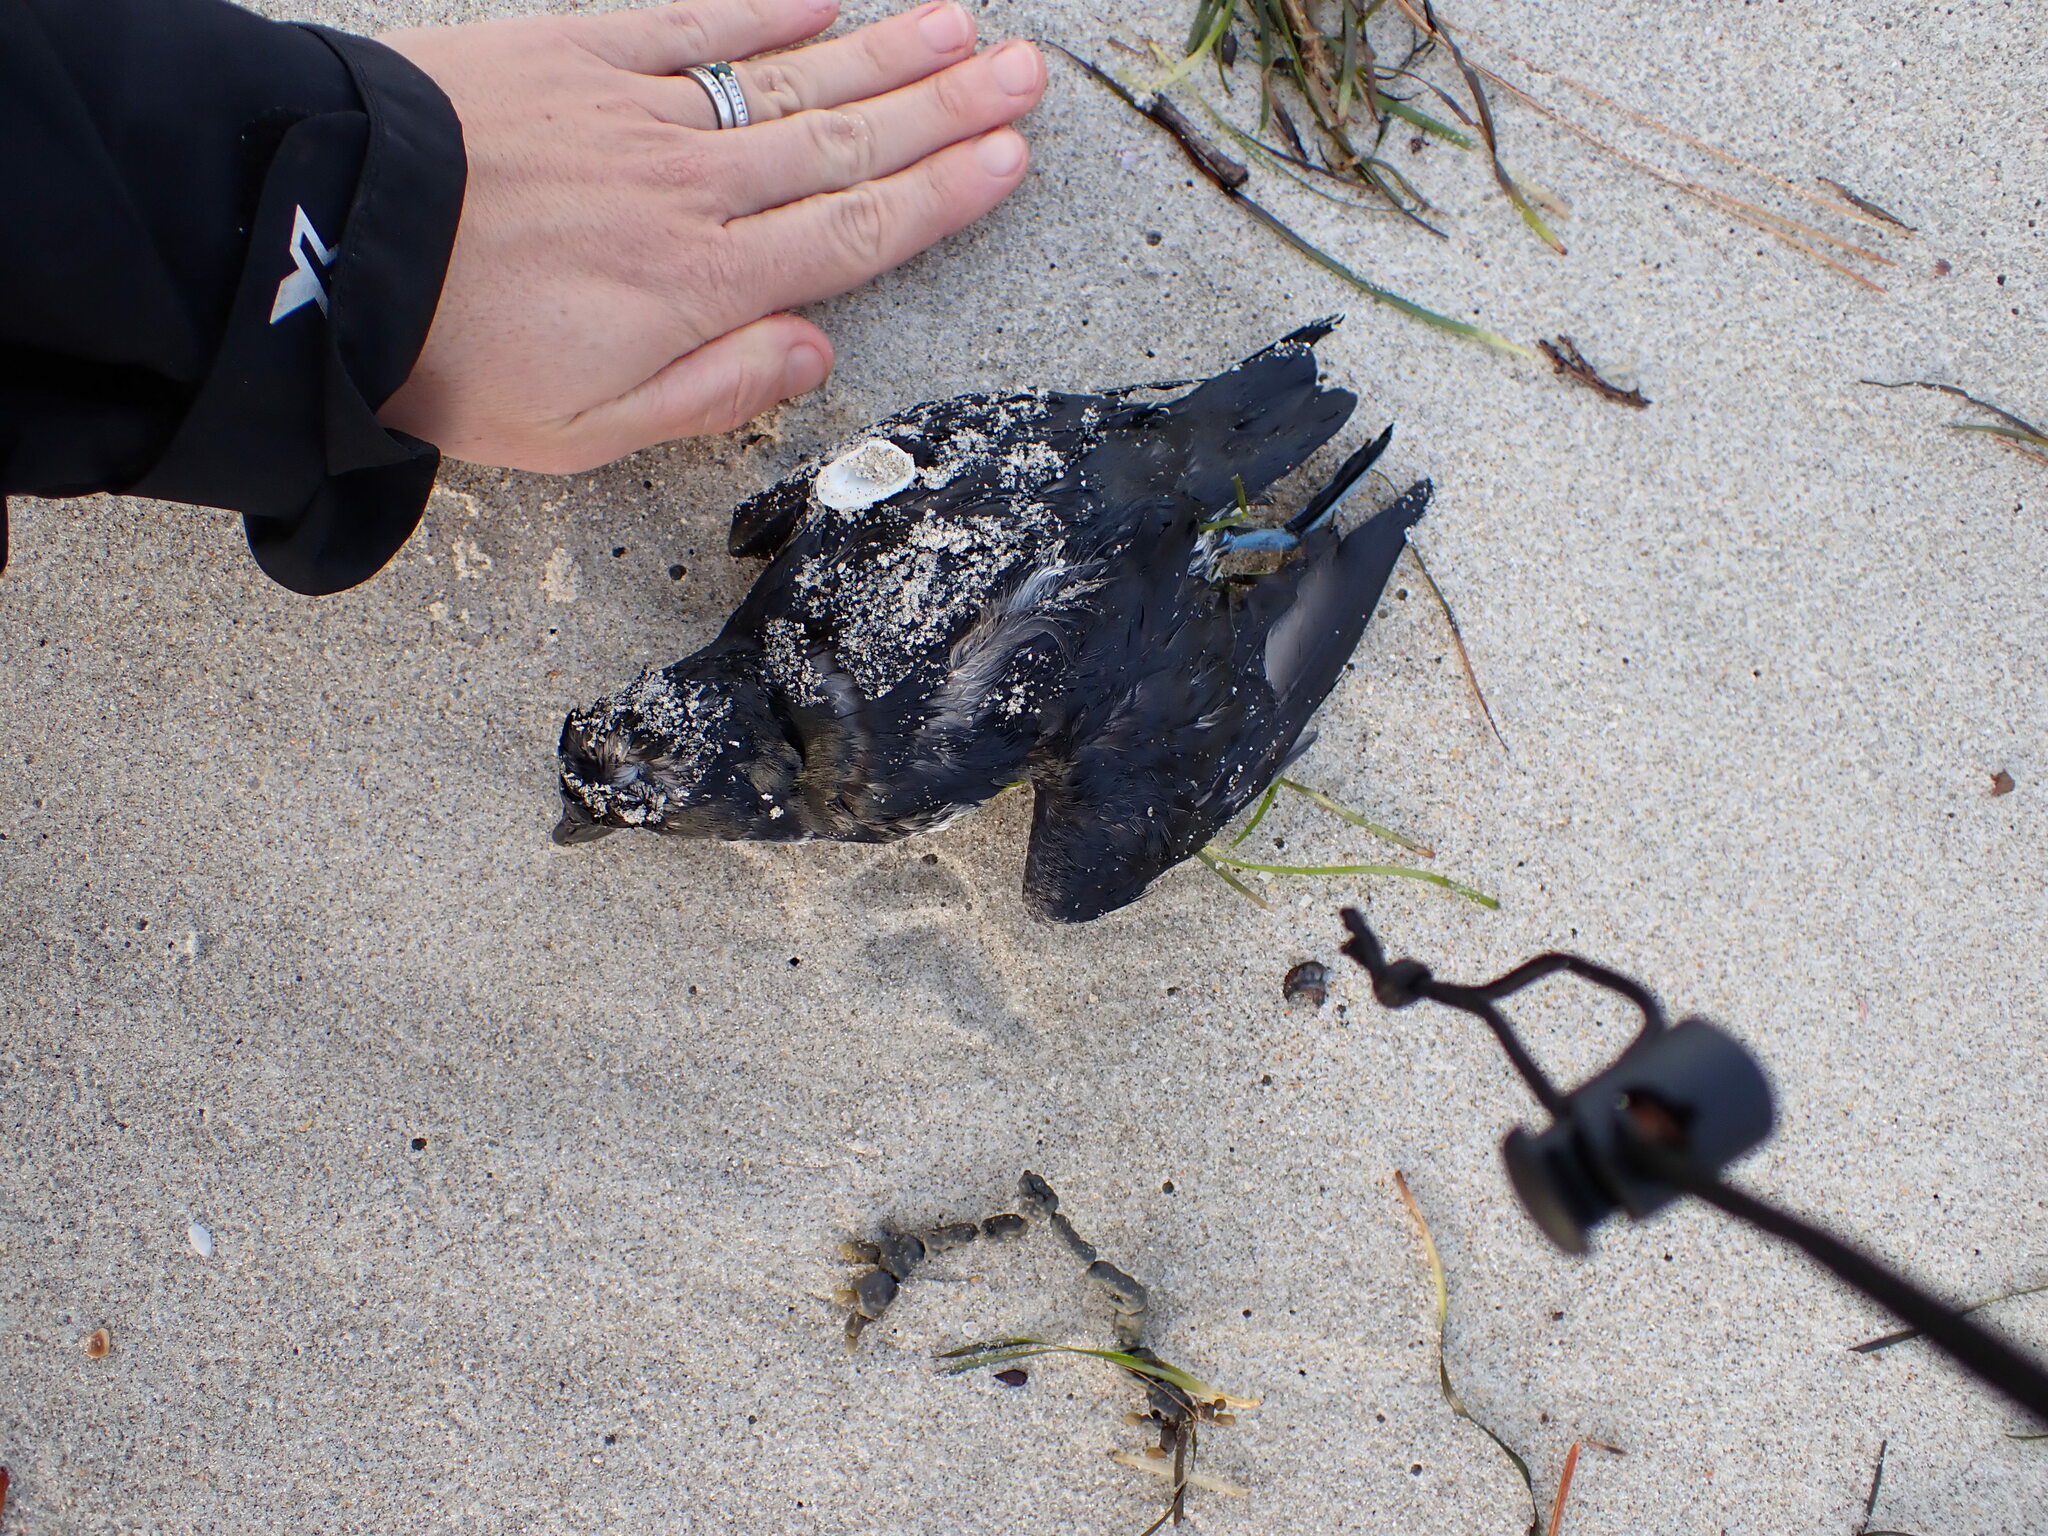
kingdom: Animalia
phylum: Chordata
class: Aves
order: Procellariiformes
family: Pelecanoididae
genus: Pelecanoides
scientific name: Pelecanoides urinatrix
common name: Common diving-petrel
